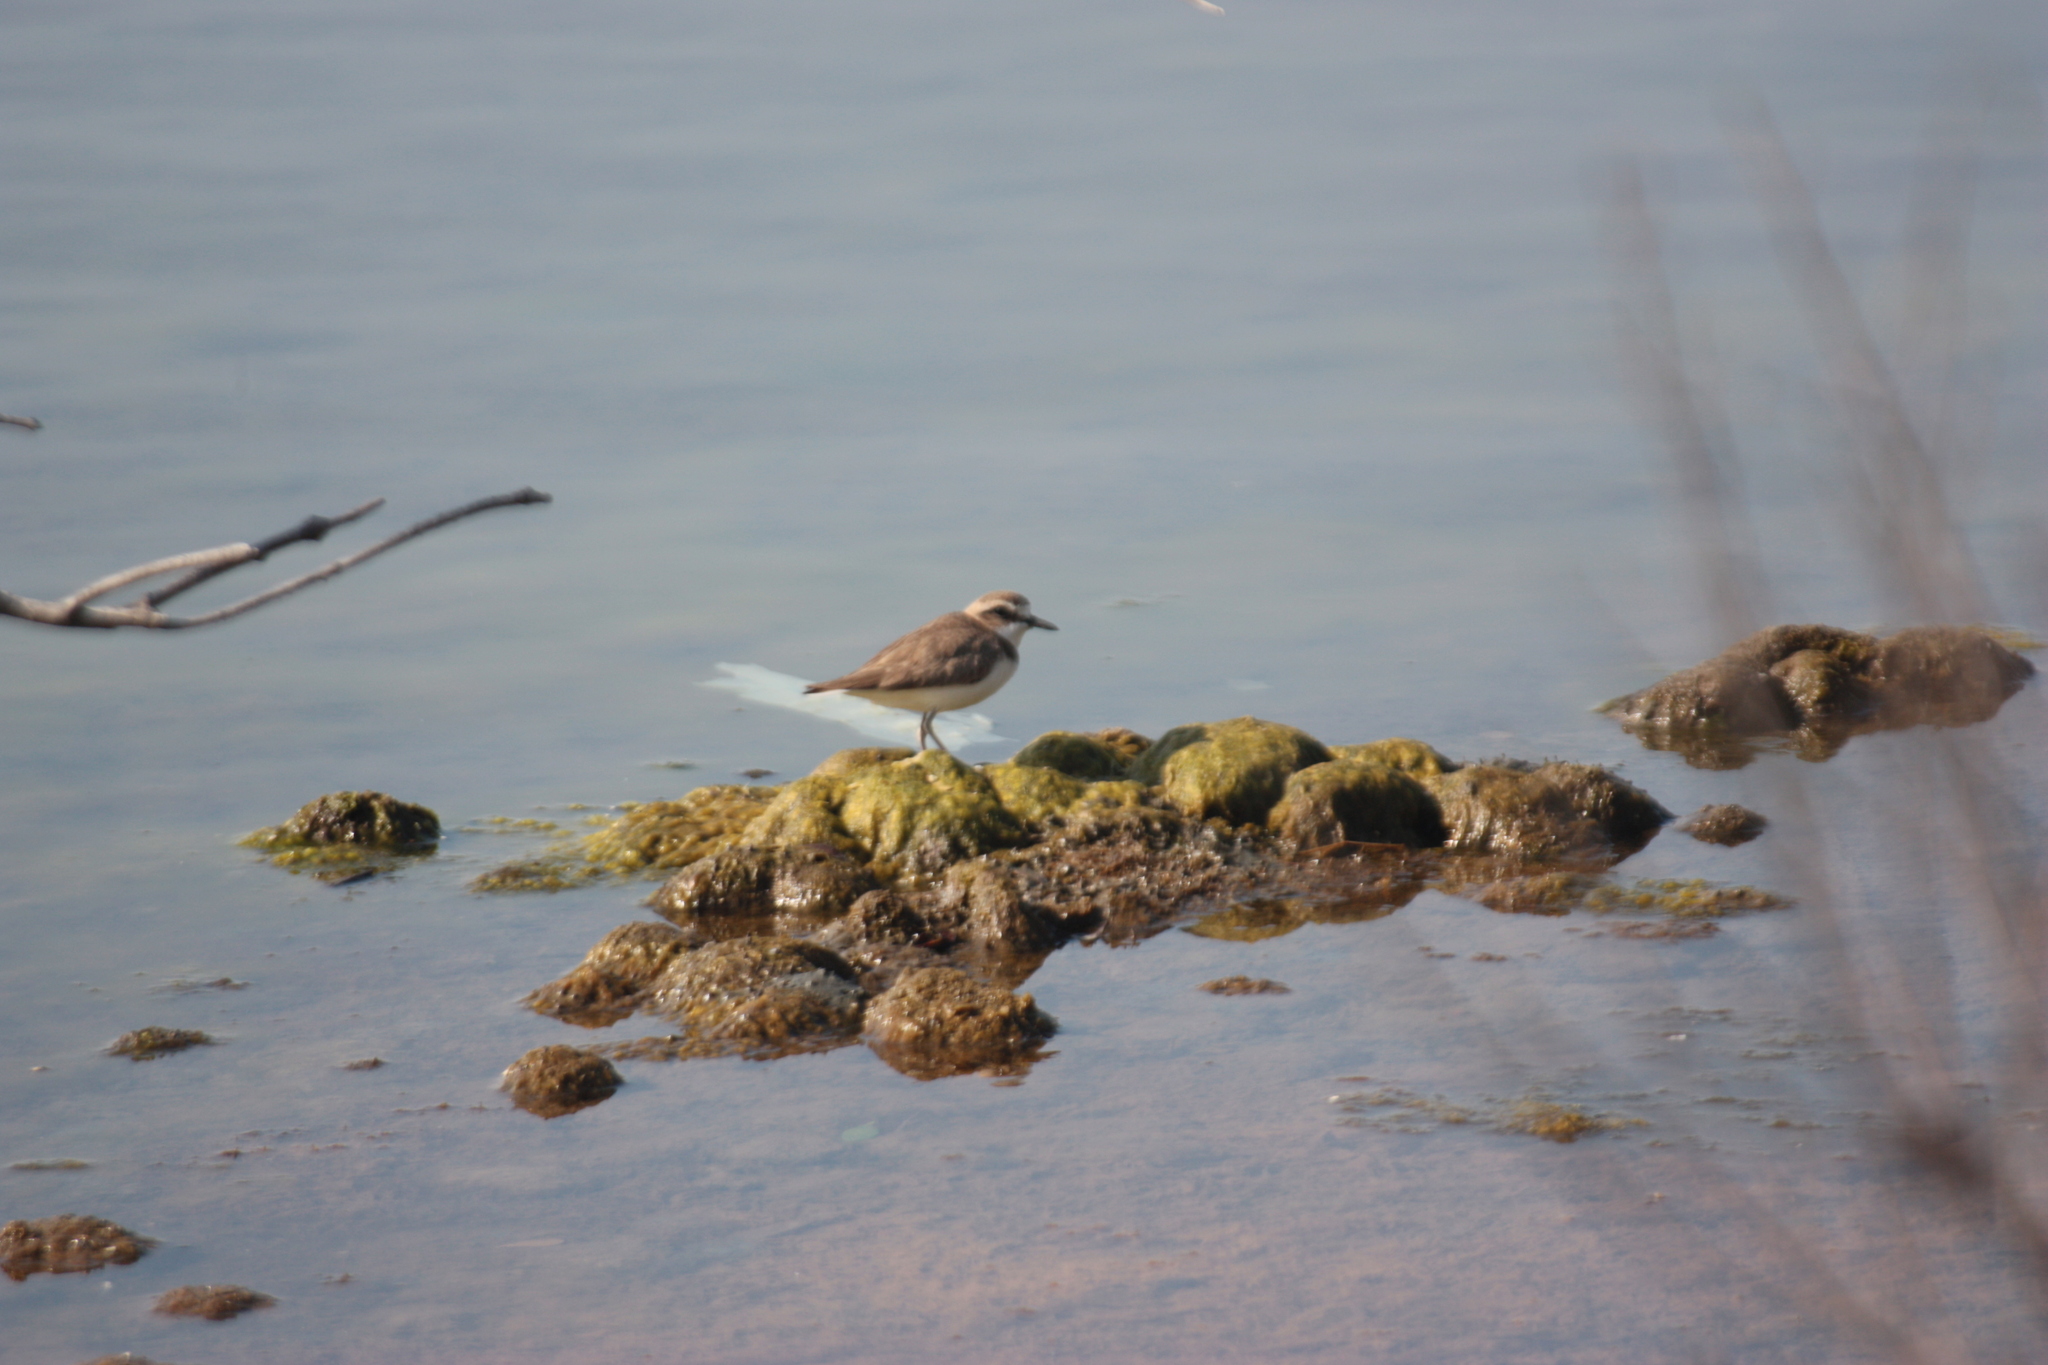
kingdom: Animalia
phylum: Chordata
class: Aves
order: Charadriiformes
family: Charadriidae
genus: Charadrius
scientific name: Charadrius alexandrinus
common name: Kentish plover
